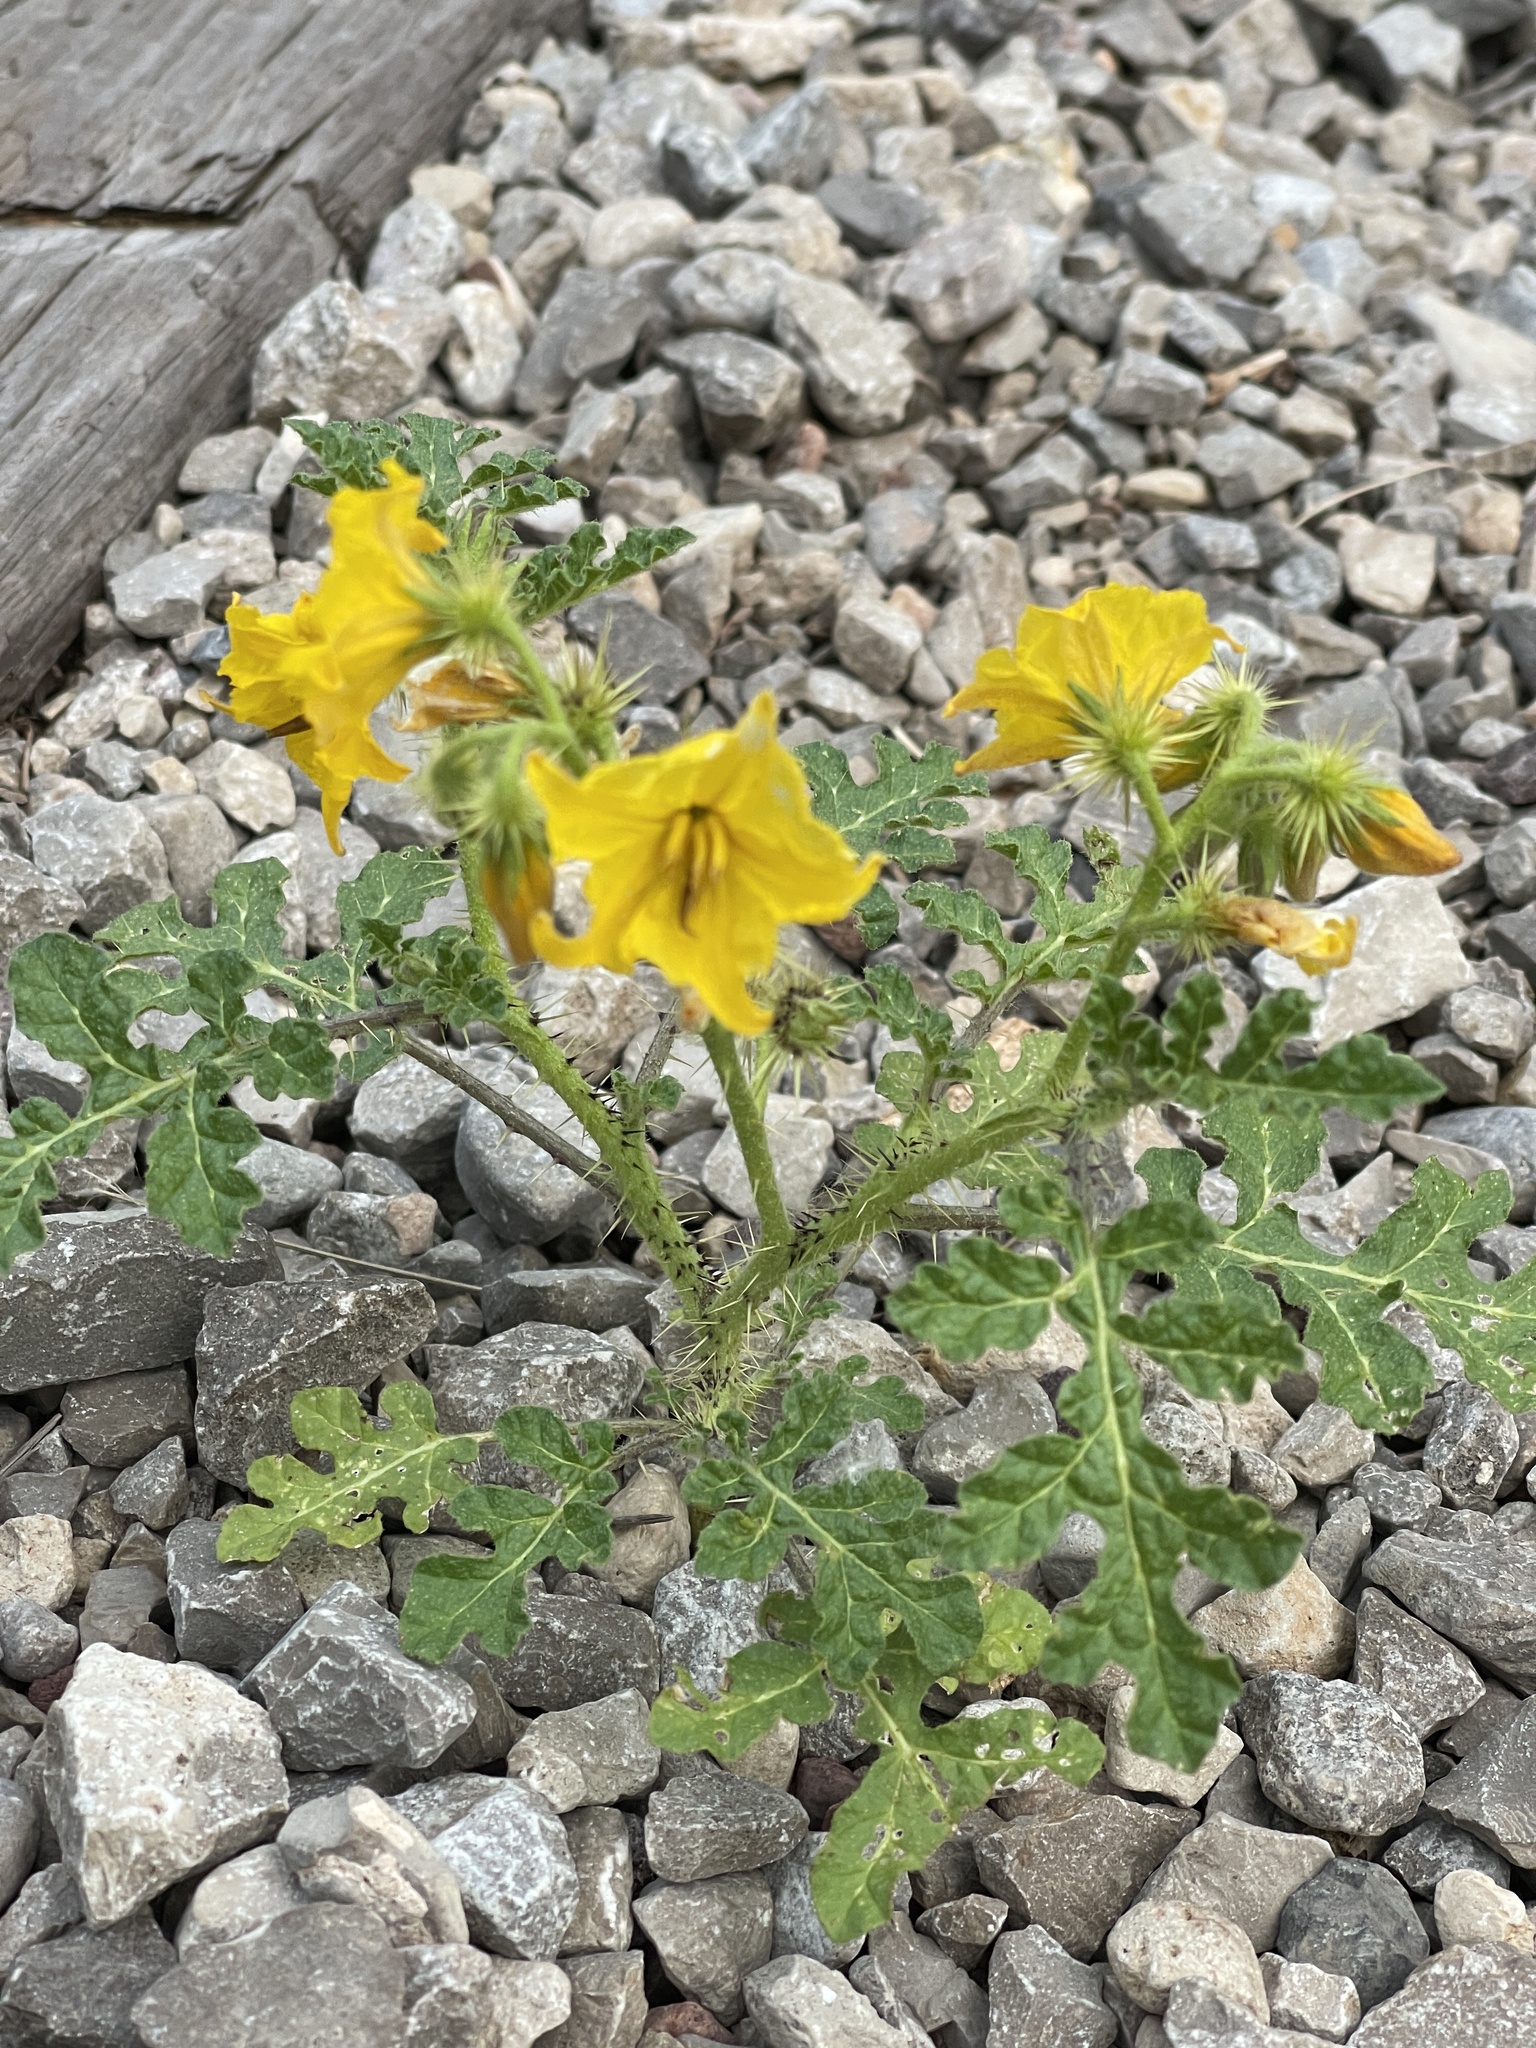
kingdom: Plantae
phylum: Tracheophyta
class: Magnoliopsida
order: Solanales
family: Solanaceae
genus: Solanum
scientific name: Solanum angustifolium
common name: Buffalobur nightshade
